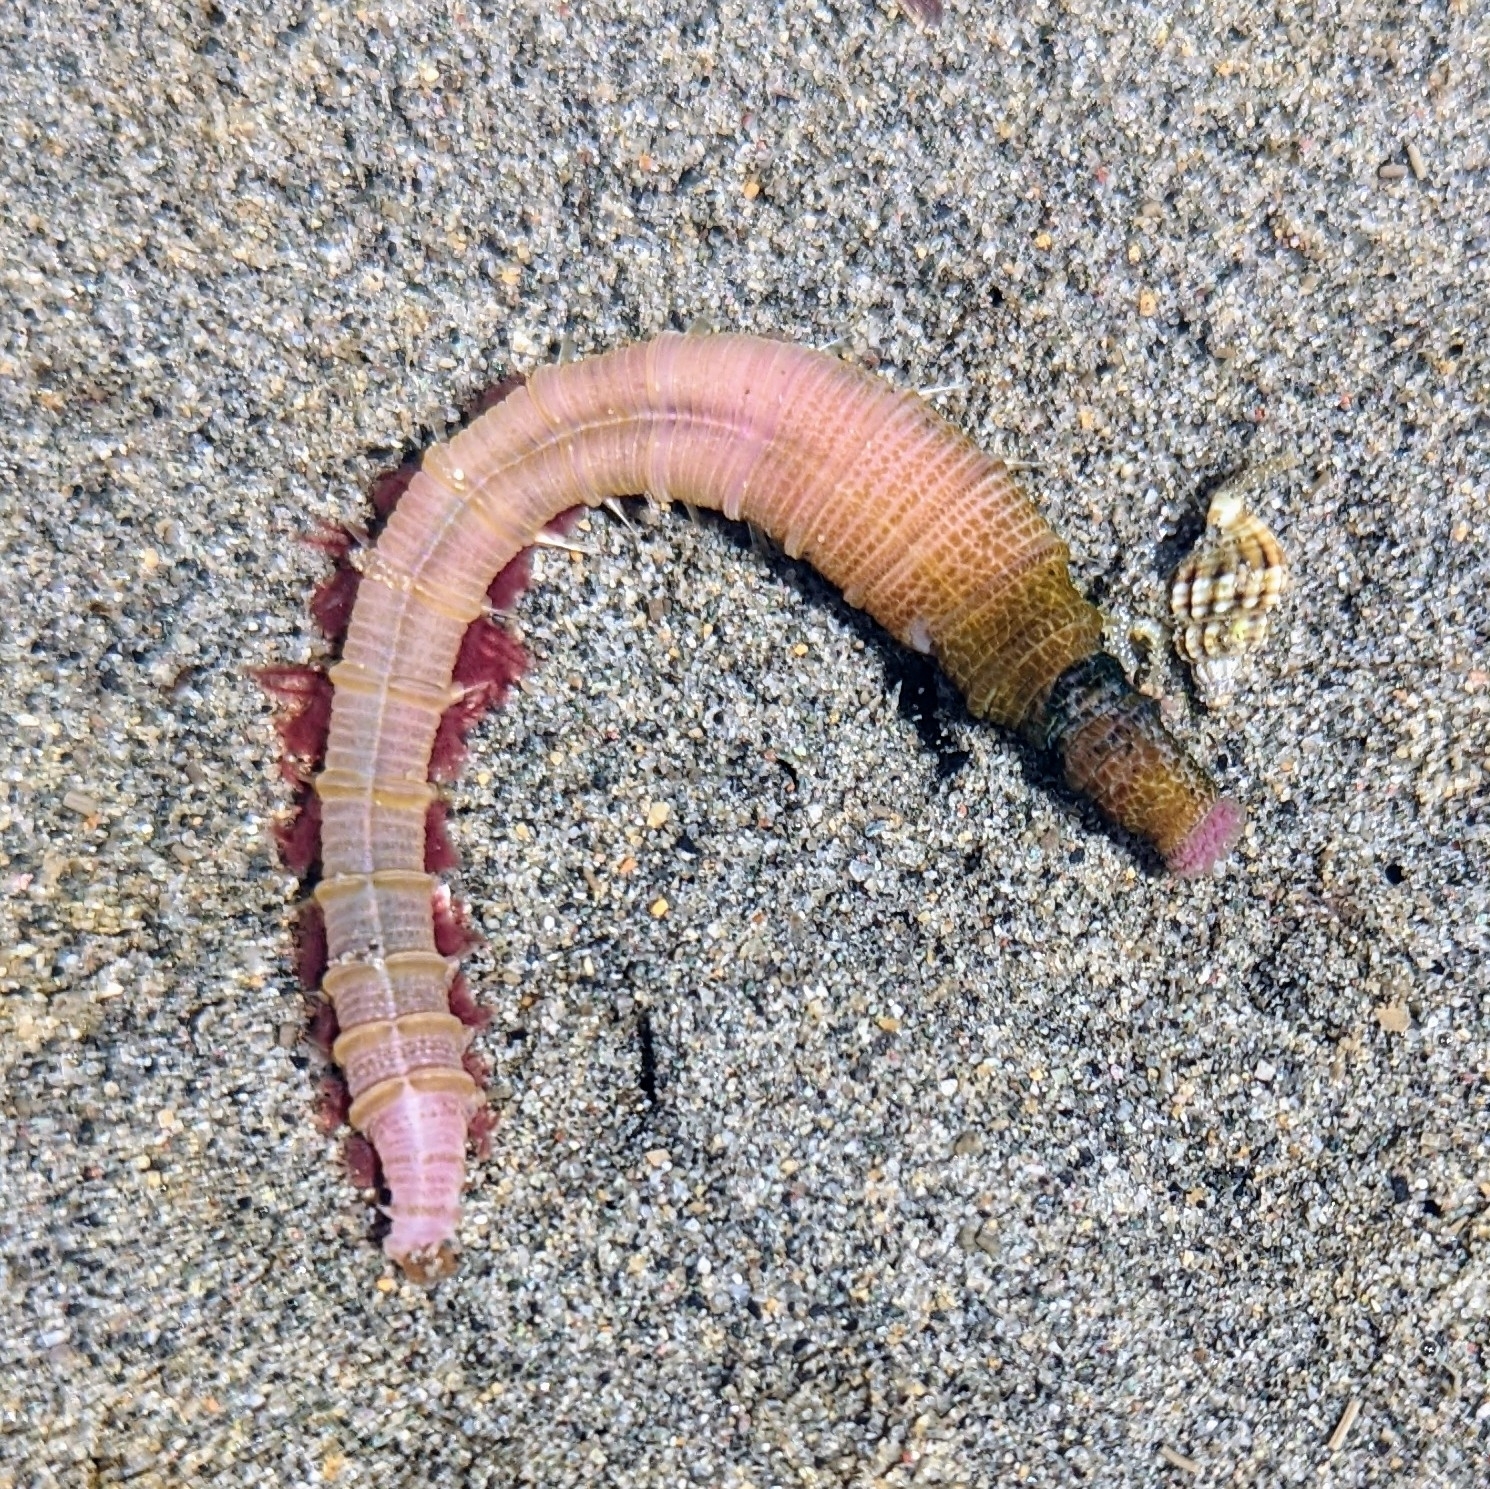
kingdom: Animalia
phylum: Annelida
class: Polychaeta
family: Arenicolidae
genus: Abarenicola
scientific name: Abarenicola pacifica
